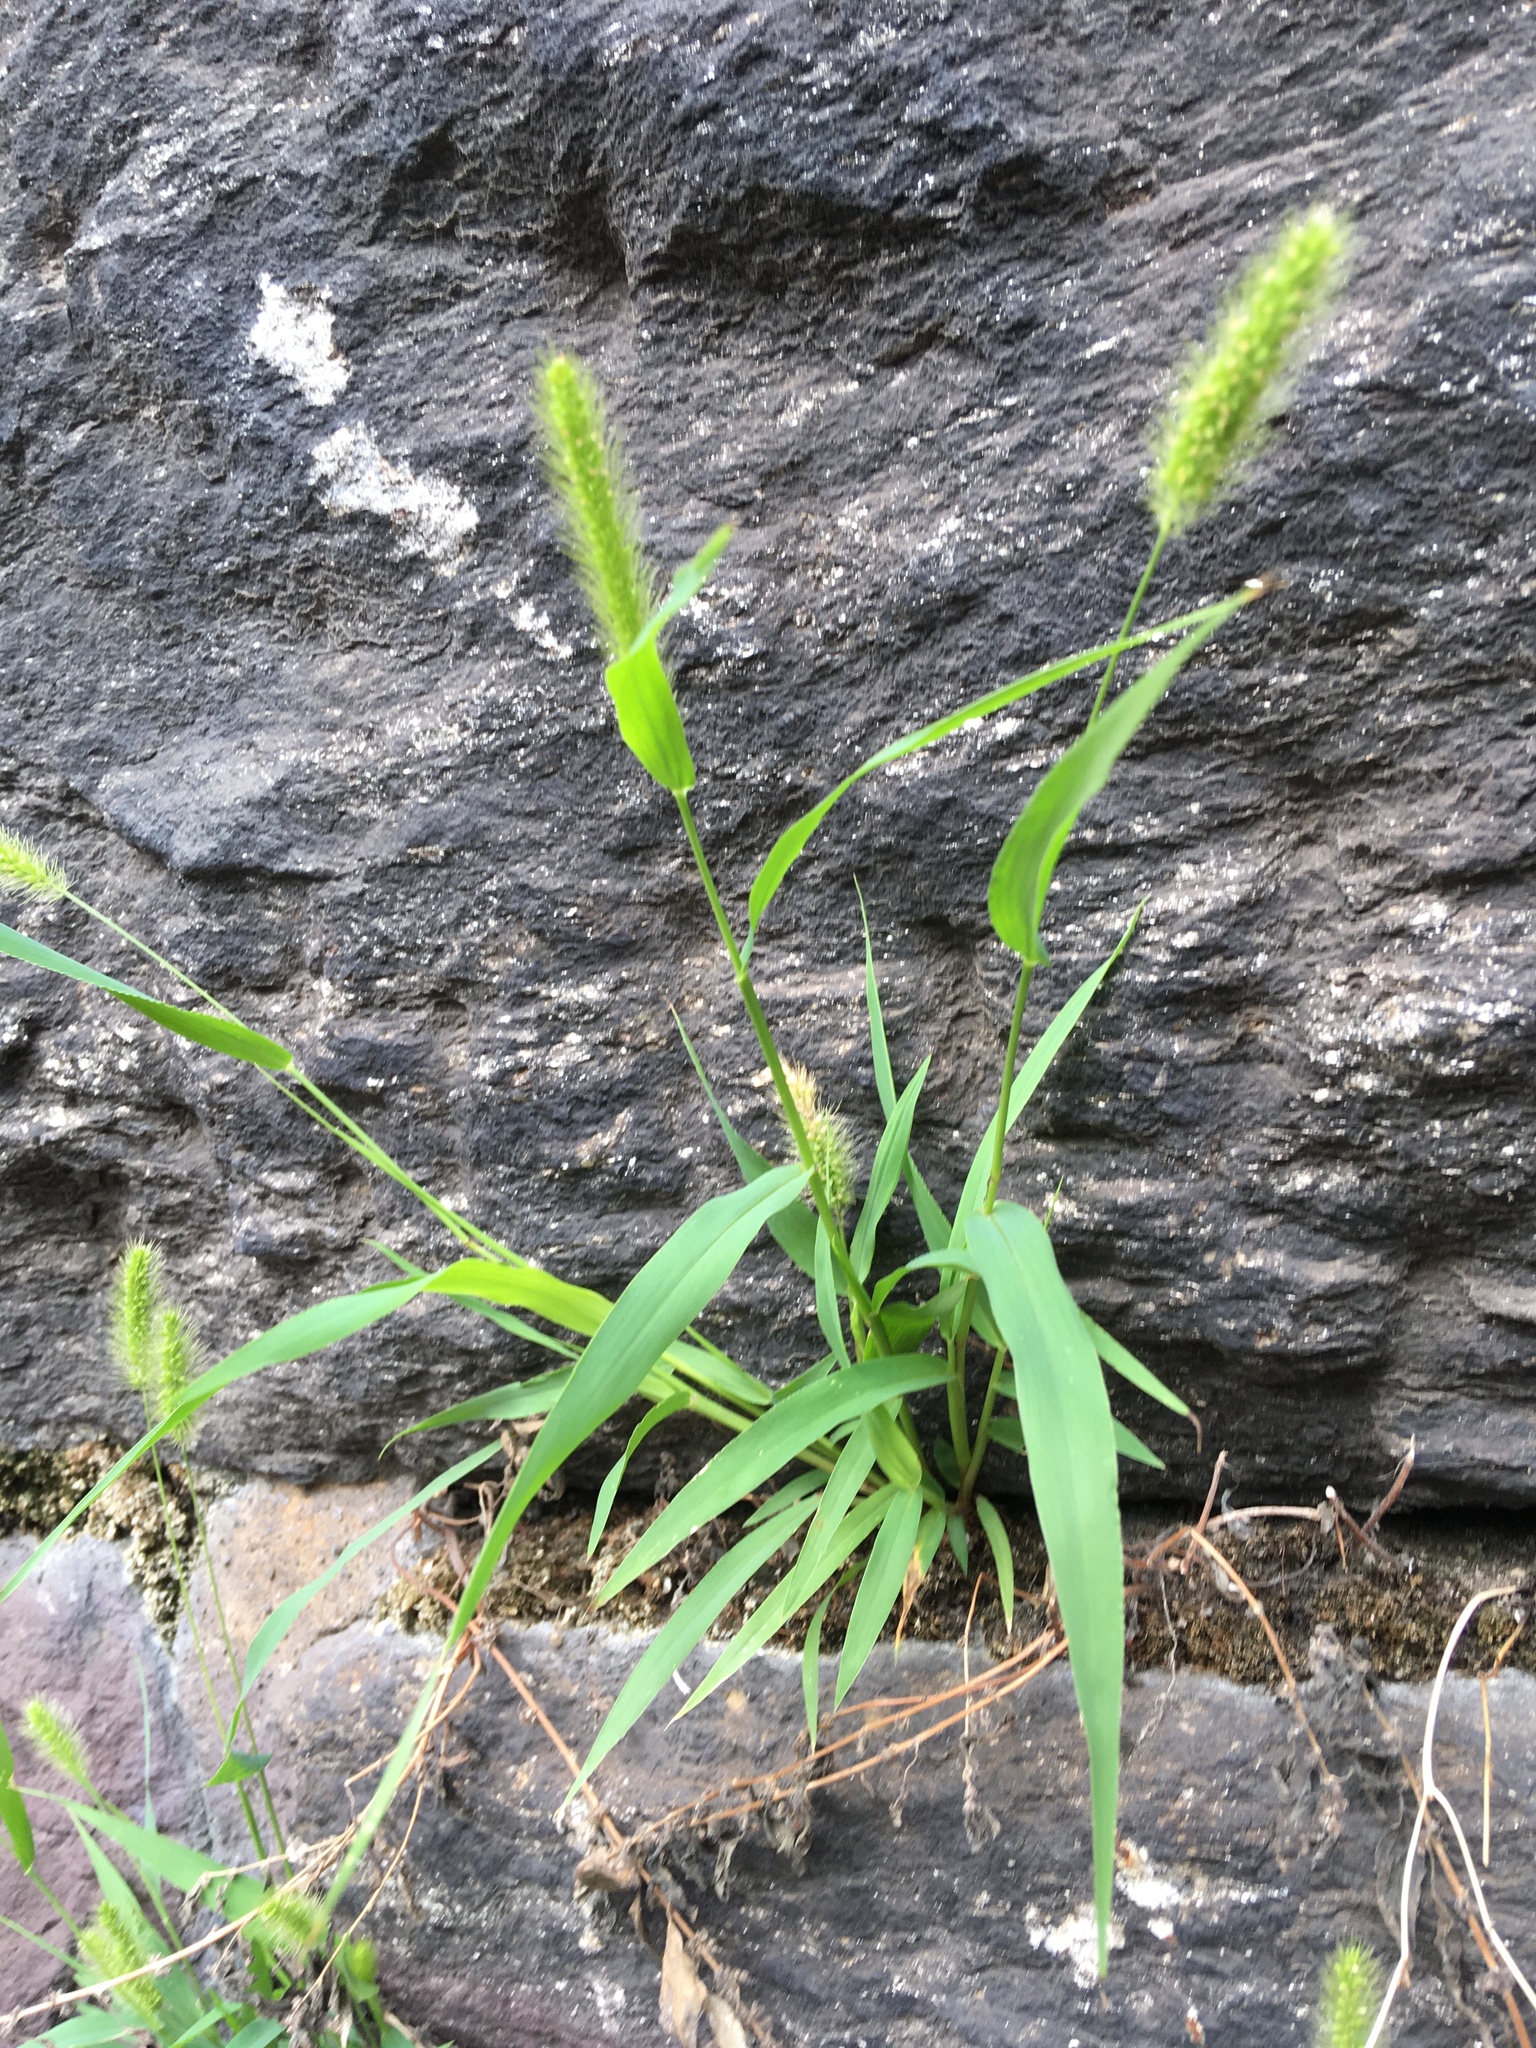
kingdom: Plantae
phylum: Tracheophyta
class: Liliopsida
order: Poales
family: Poaceae
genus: Setaria
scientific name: Setaria viridis
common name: Green bristlegrass
